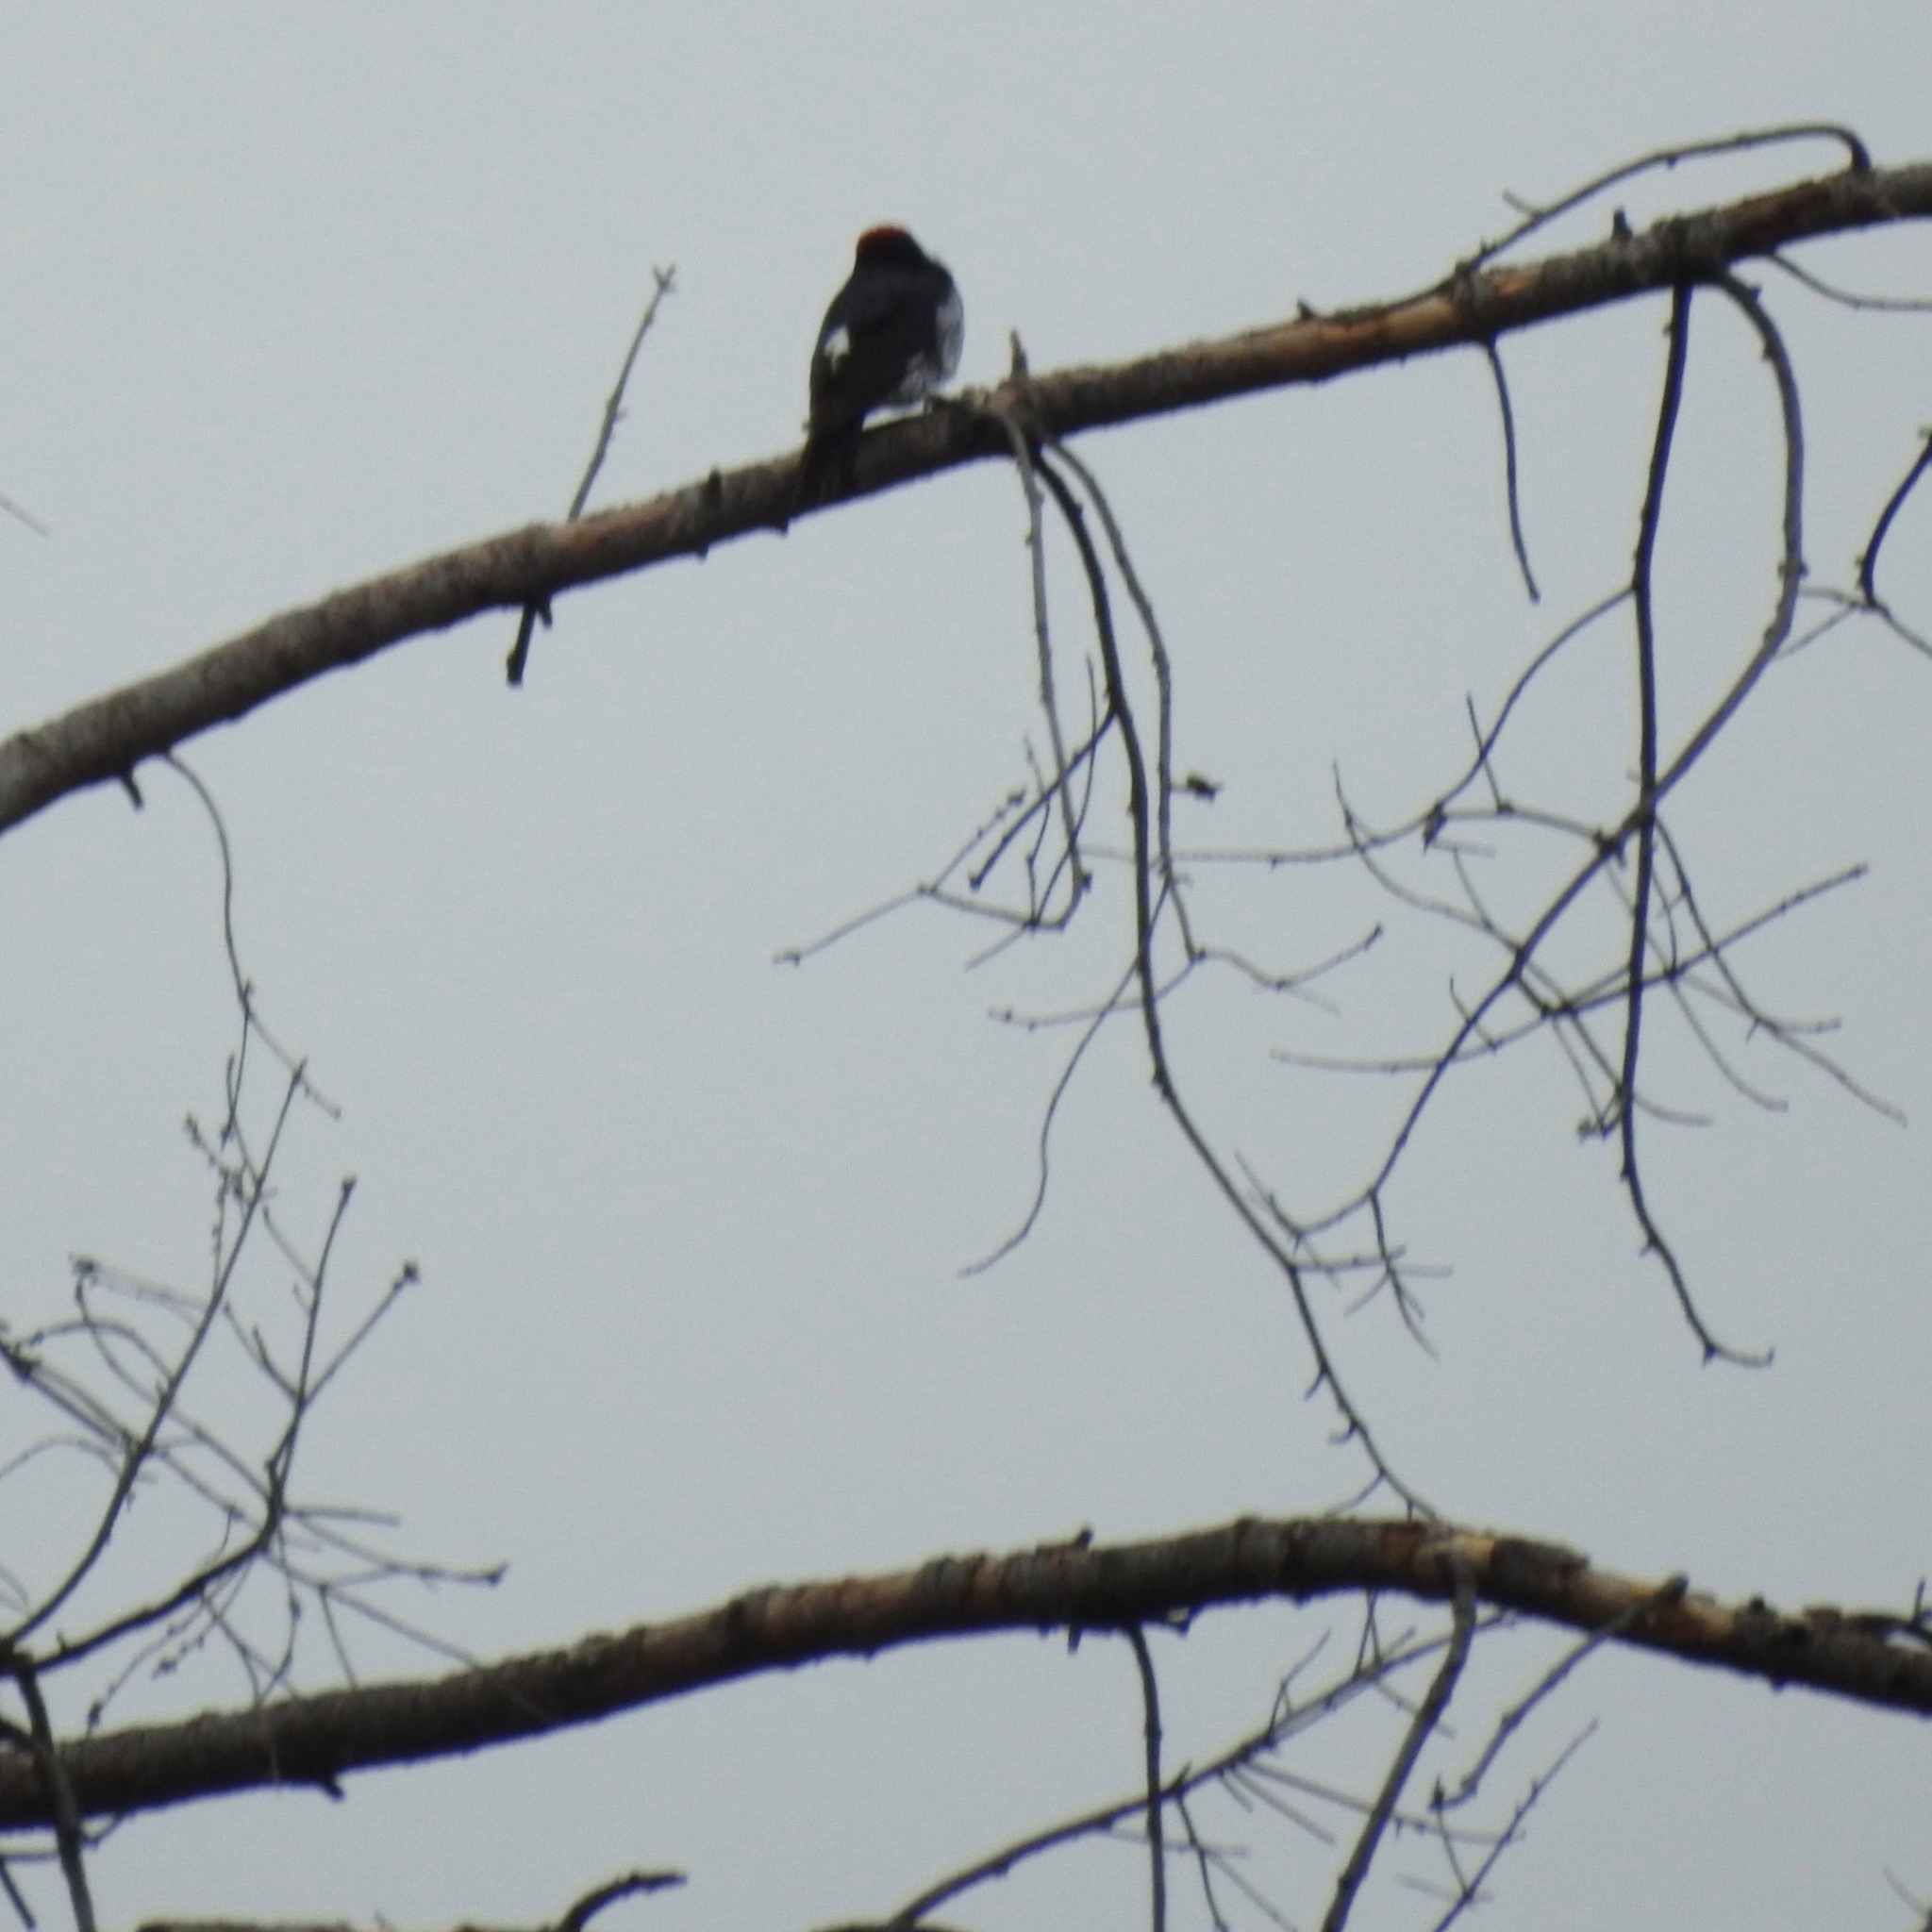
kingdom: Animalia
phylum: Chordata
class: Aves
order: Piciformes
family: Picidae
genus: Melanerpes
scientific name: Melanerpes formicivorus
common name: Acorn woodpecker
